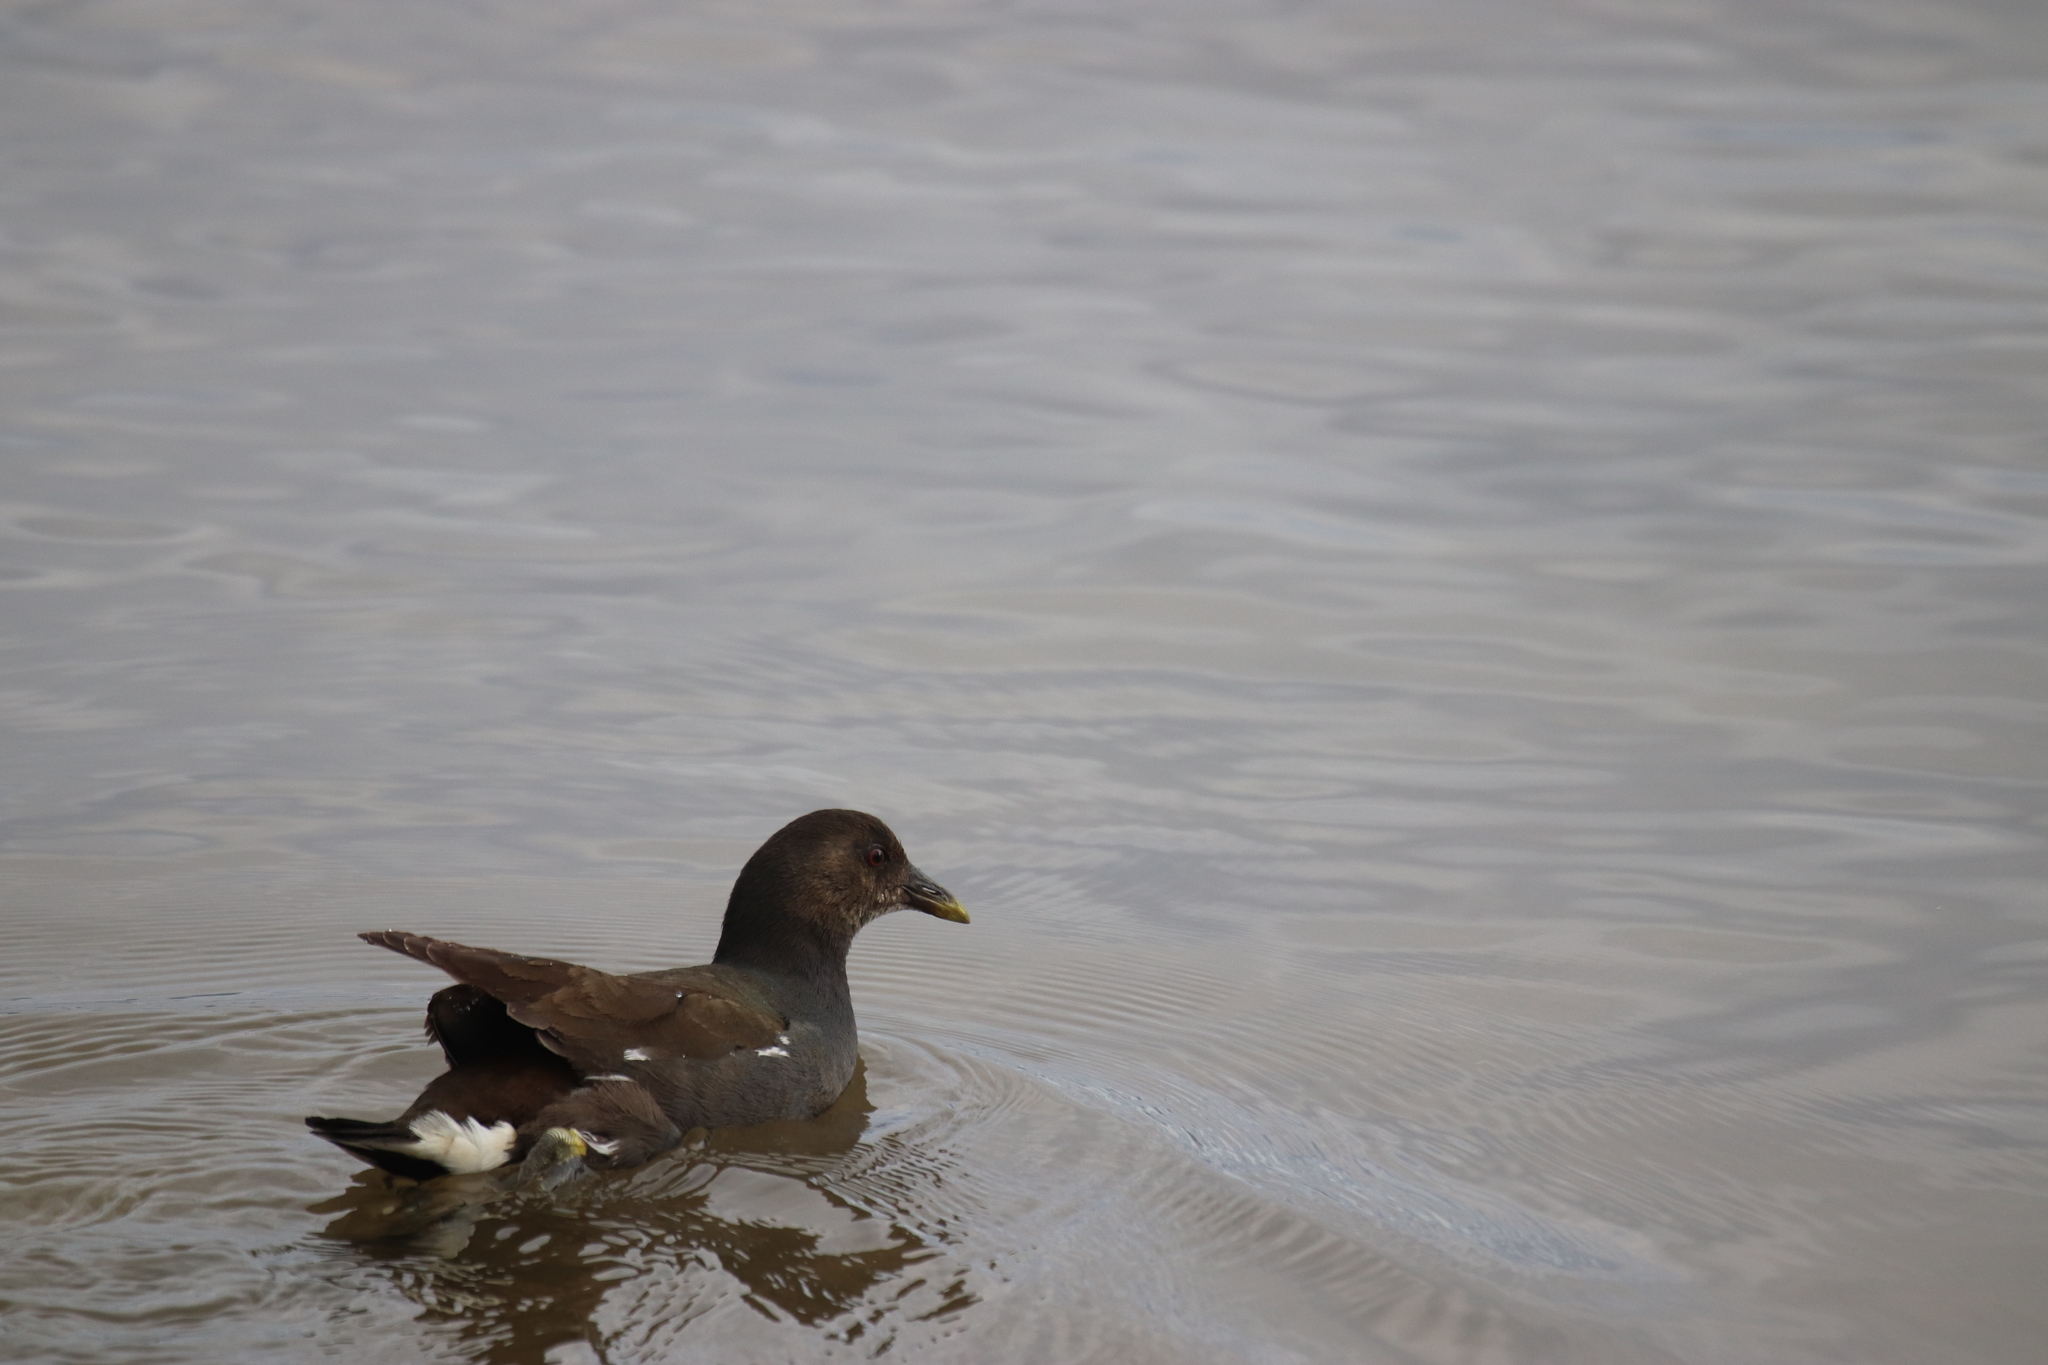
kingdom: Animalia
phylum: Chordata
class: Aves
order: Gruiformes
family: Rallidae
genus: Gallinula
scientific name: Gallinula chloropus
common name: Common moorhen
